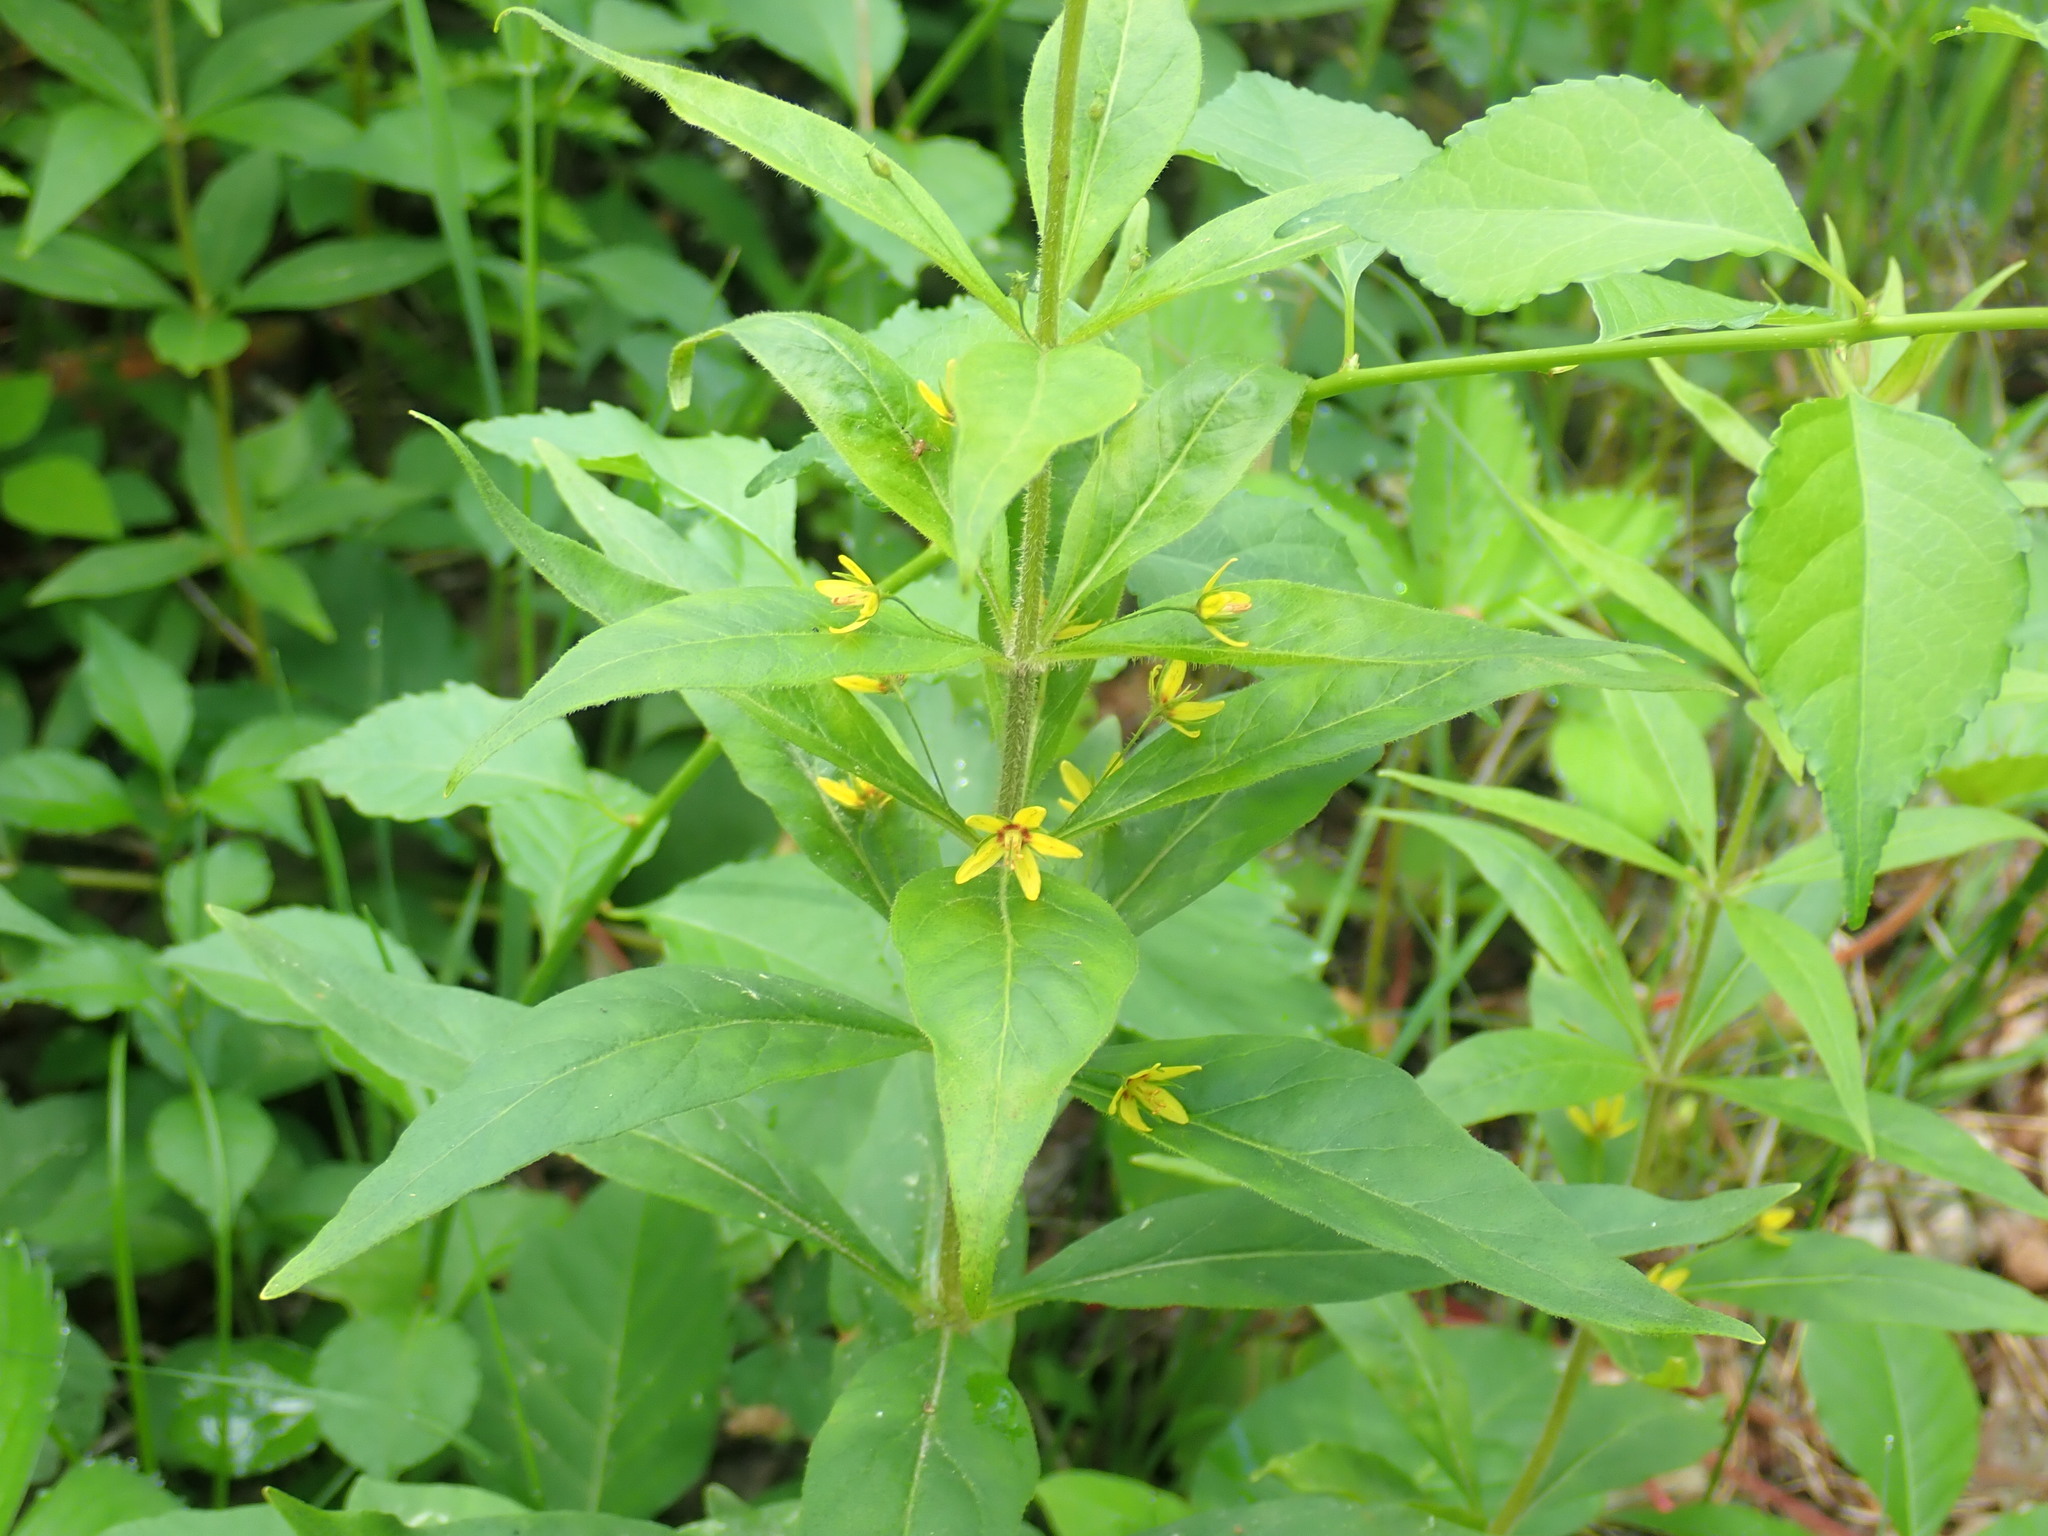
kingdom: Plantae
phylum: Tracheophyta
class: Magnoliopsida
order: Ericales
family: Primulaceae
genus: Lysimachia
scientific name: Lysimachia quadrifolia
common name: Whorled loosestrife
